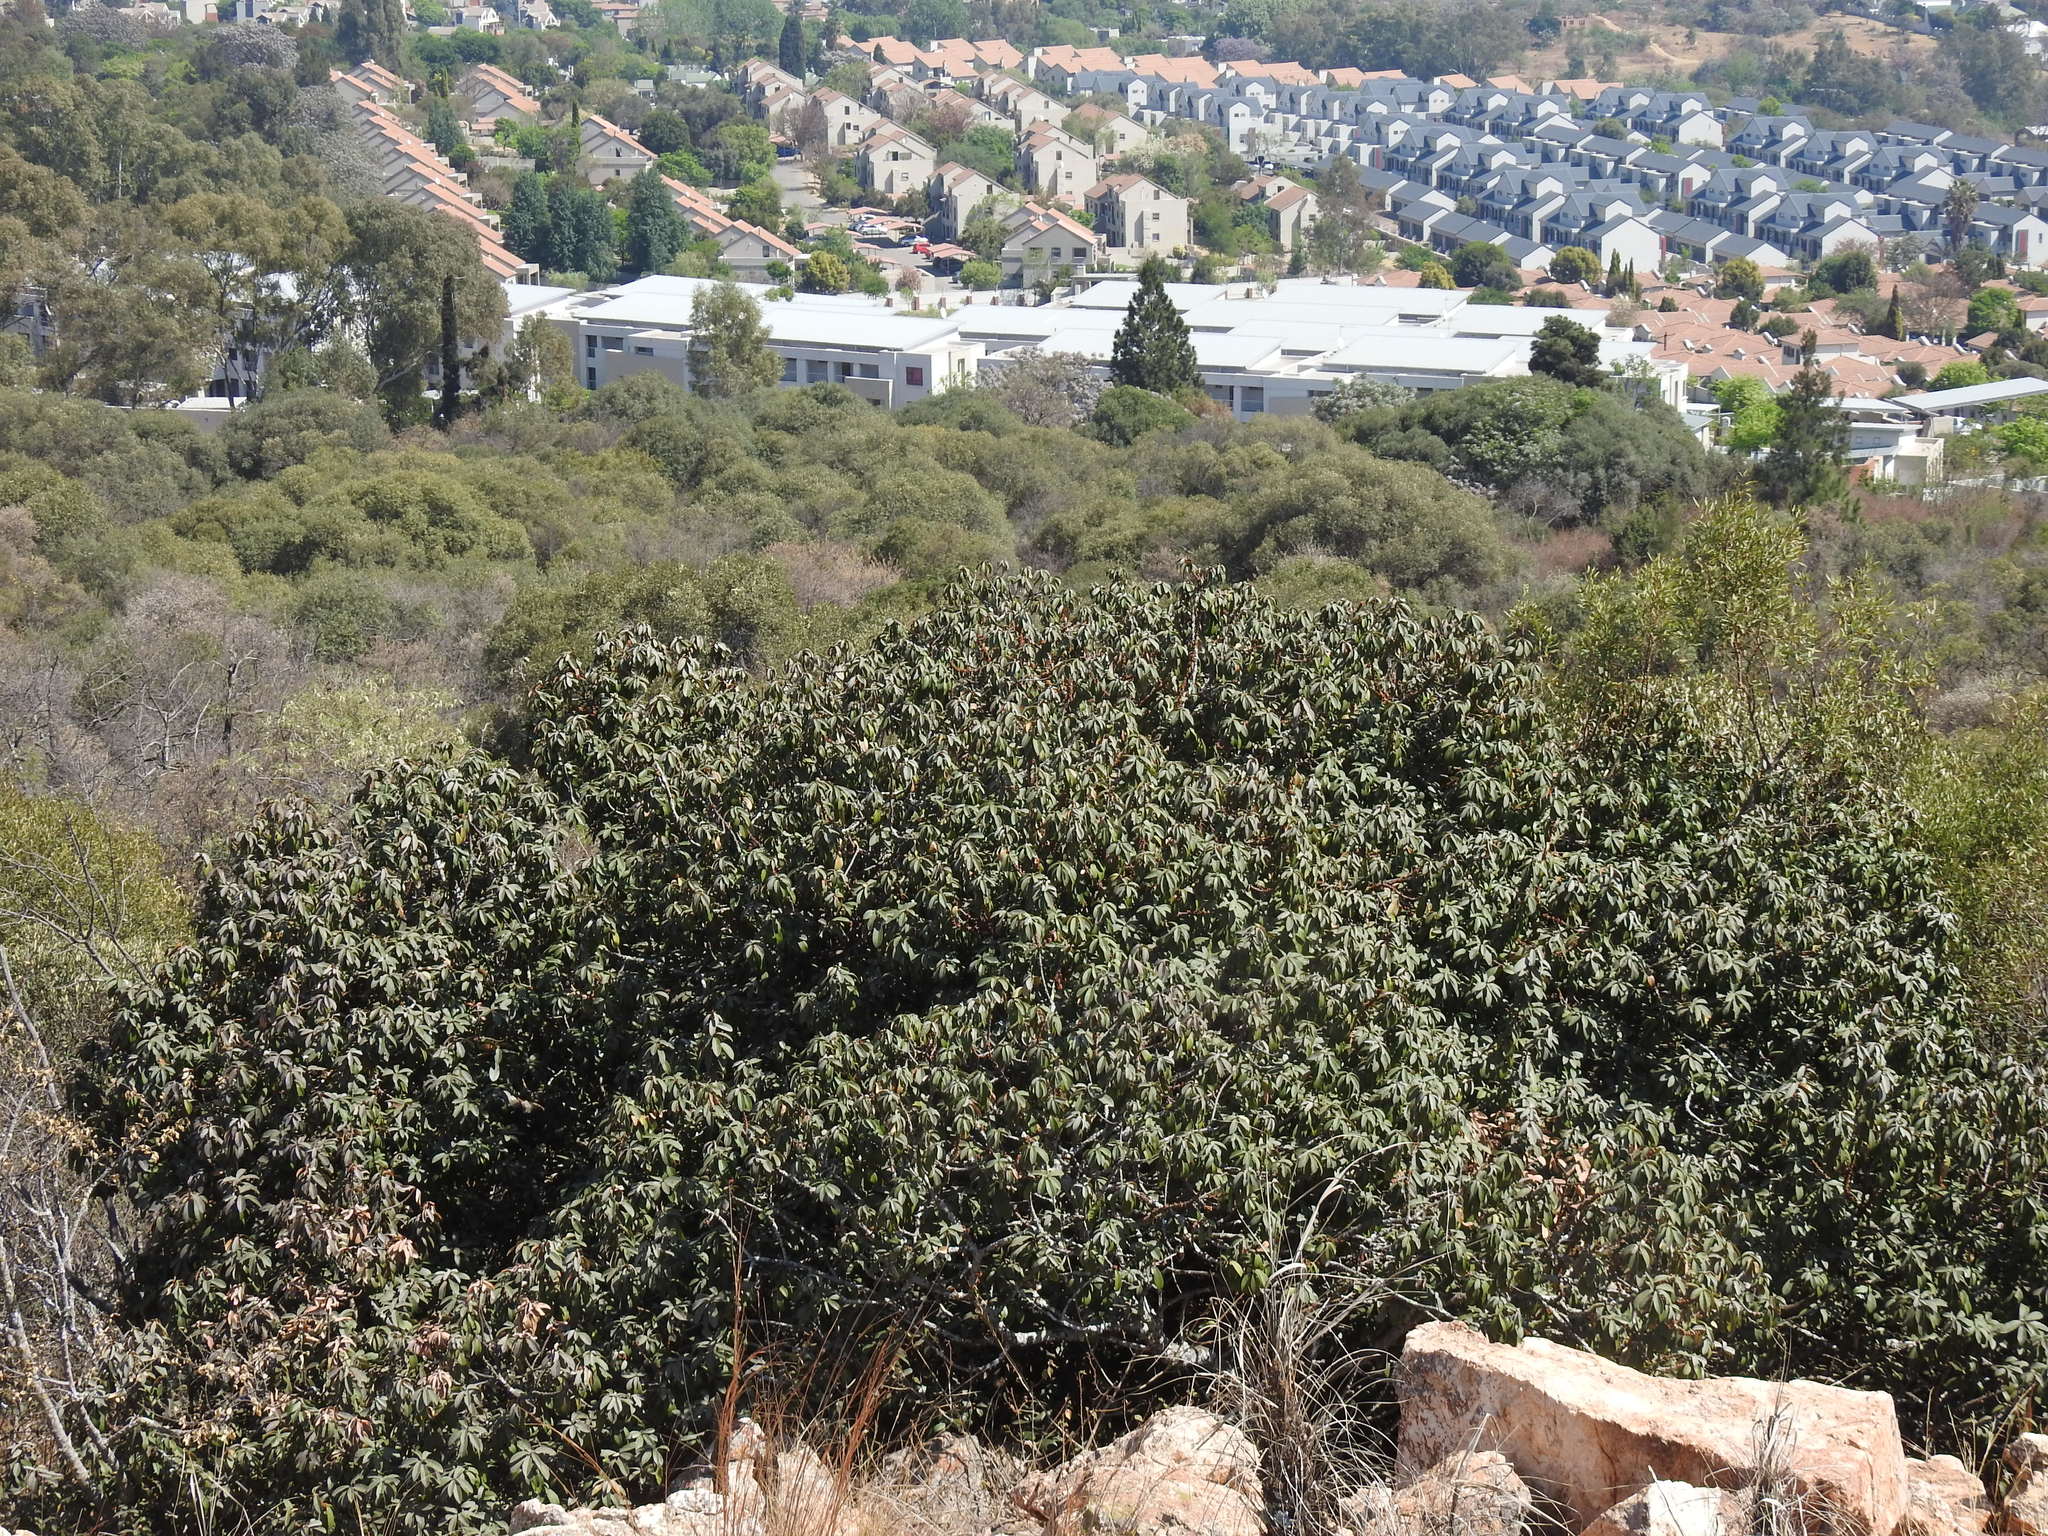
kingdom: Plantae
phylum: Tracheophyta
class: Magnoliopsida
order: Ericales
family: Sapotaceae
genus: Englerophytum
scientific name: Englerophytum magalismontanum
